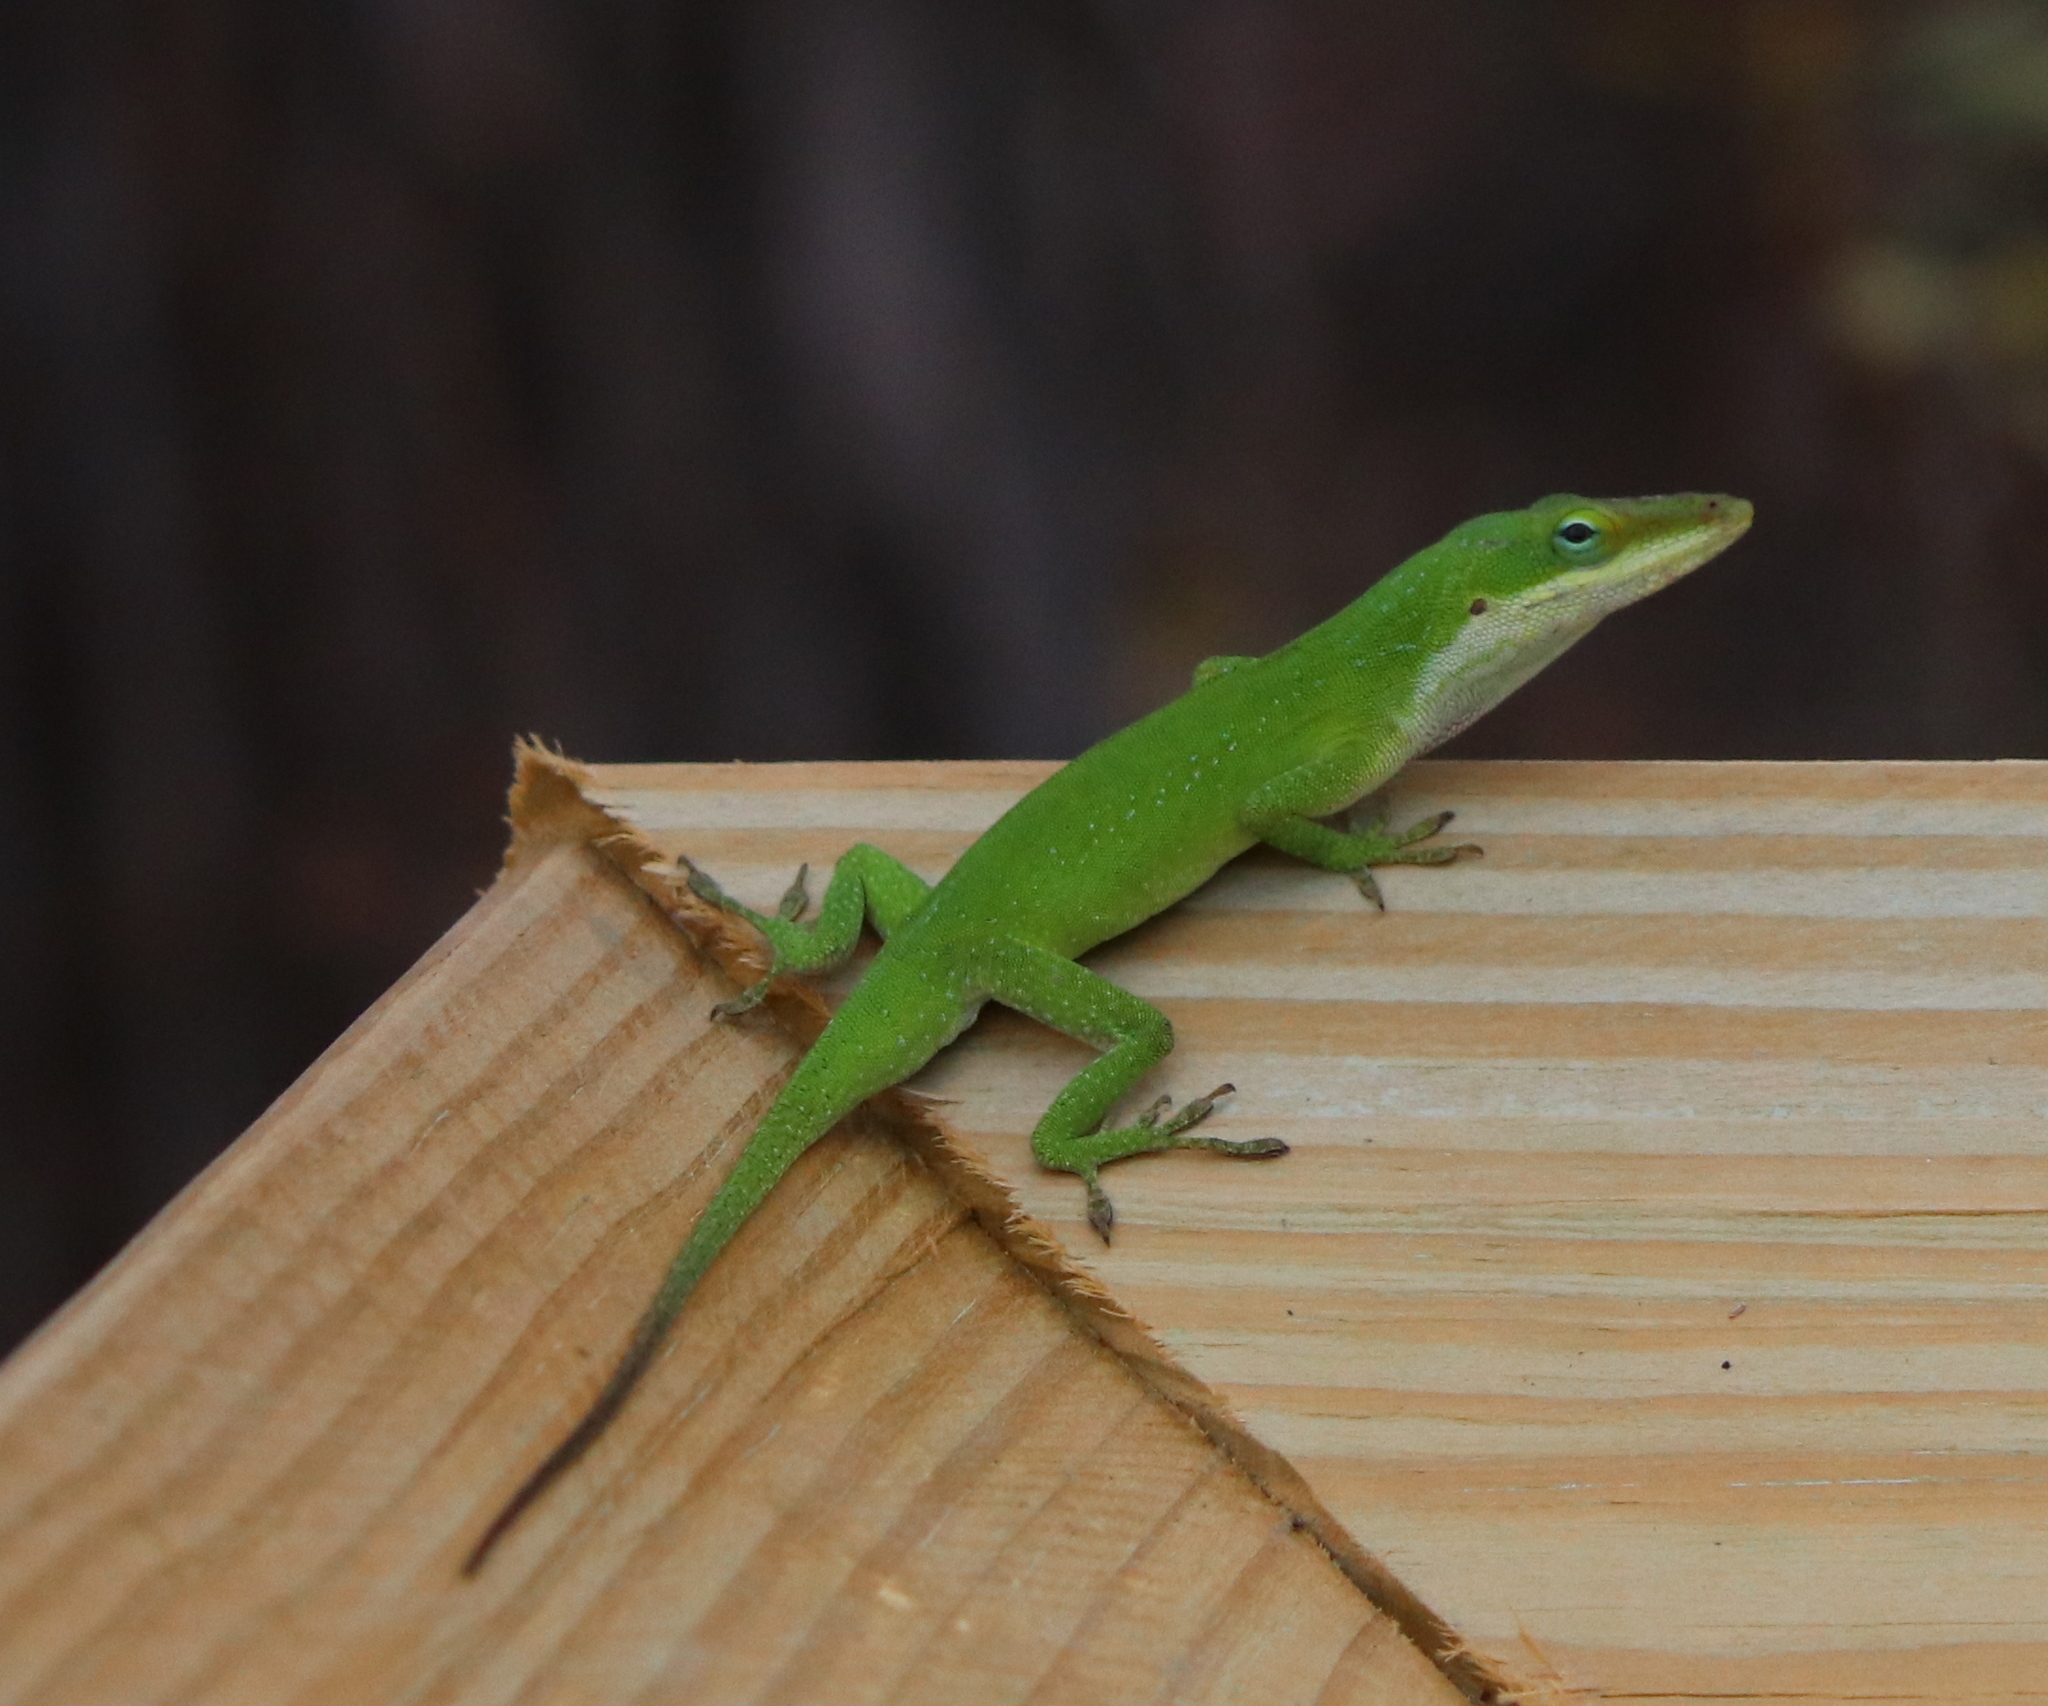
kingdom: Animalia
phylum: Chordata
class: Squamata
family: Dactyloidae
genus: Anolis
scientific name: Anolis carolinensis
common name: Green anole
